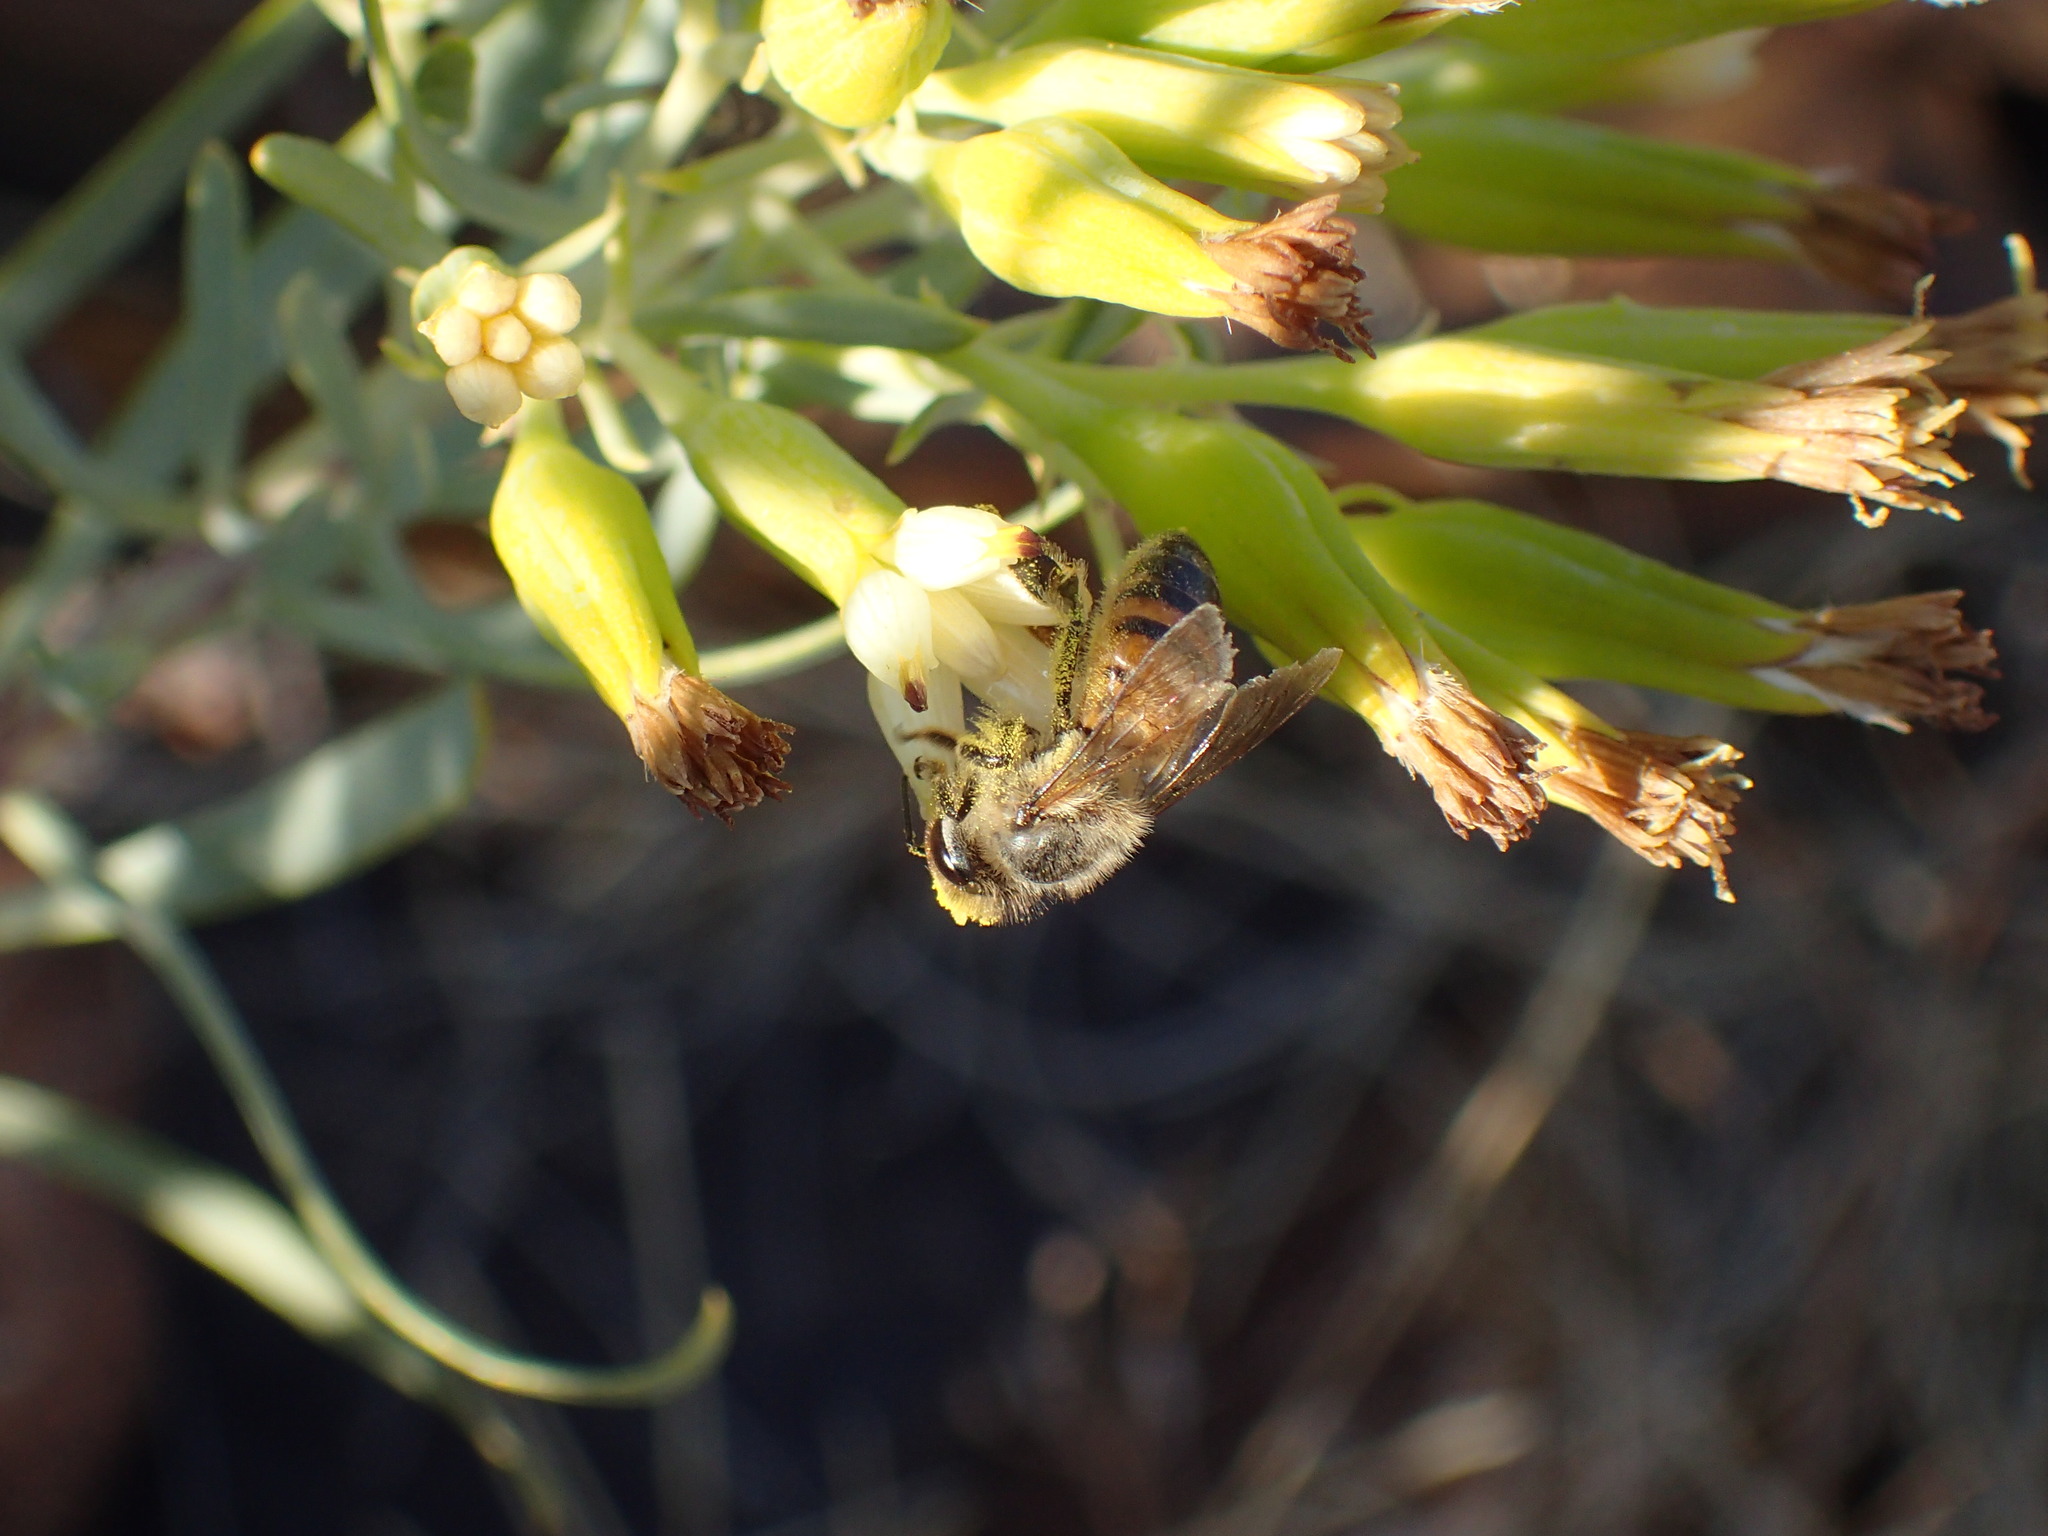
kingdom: Animalia
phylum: Arthropoda
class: Insecta
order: Hymenoptera
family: Apidae
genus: Apis
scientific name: Apis mellifera
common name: Honey bee
